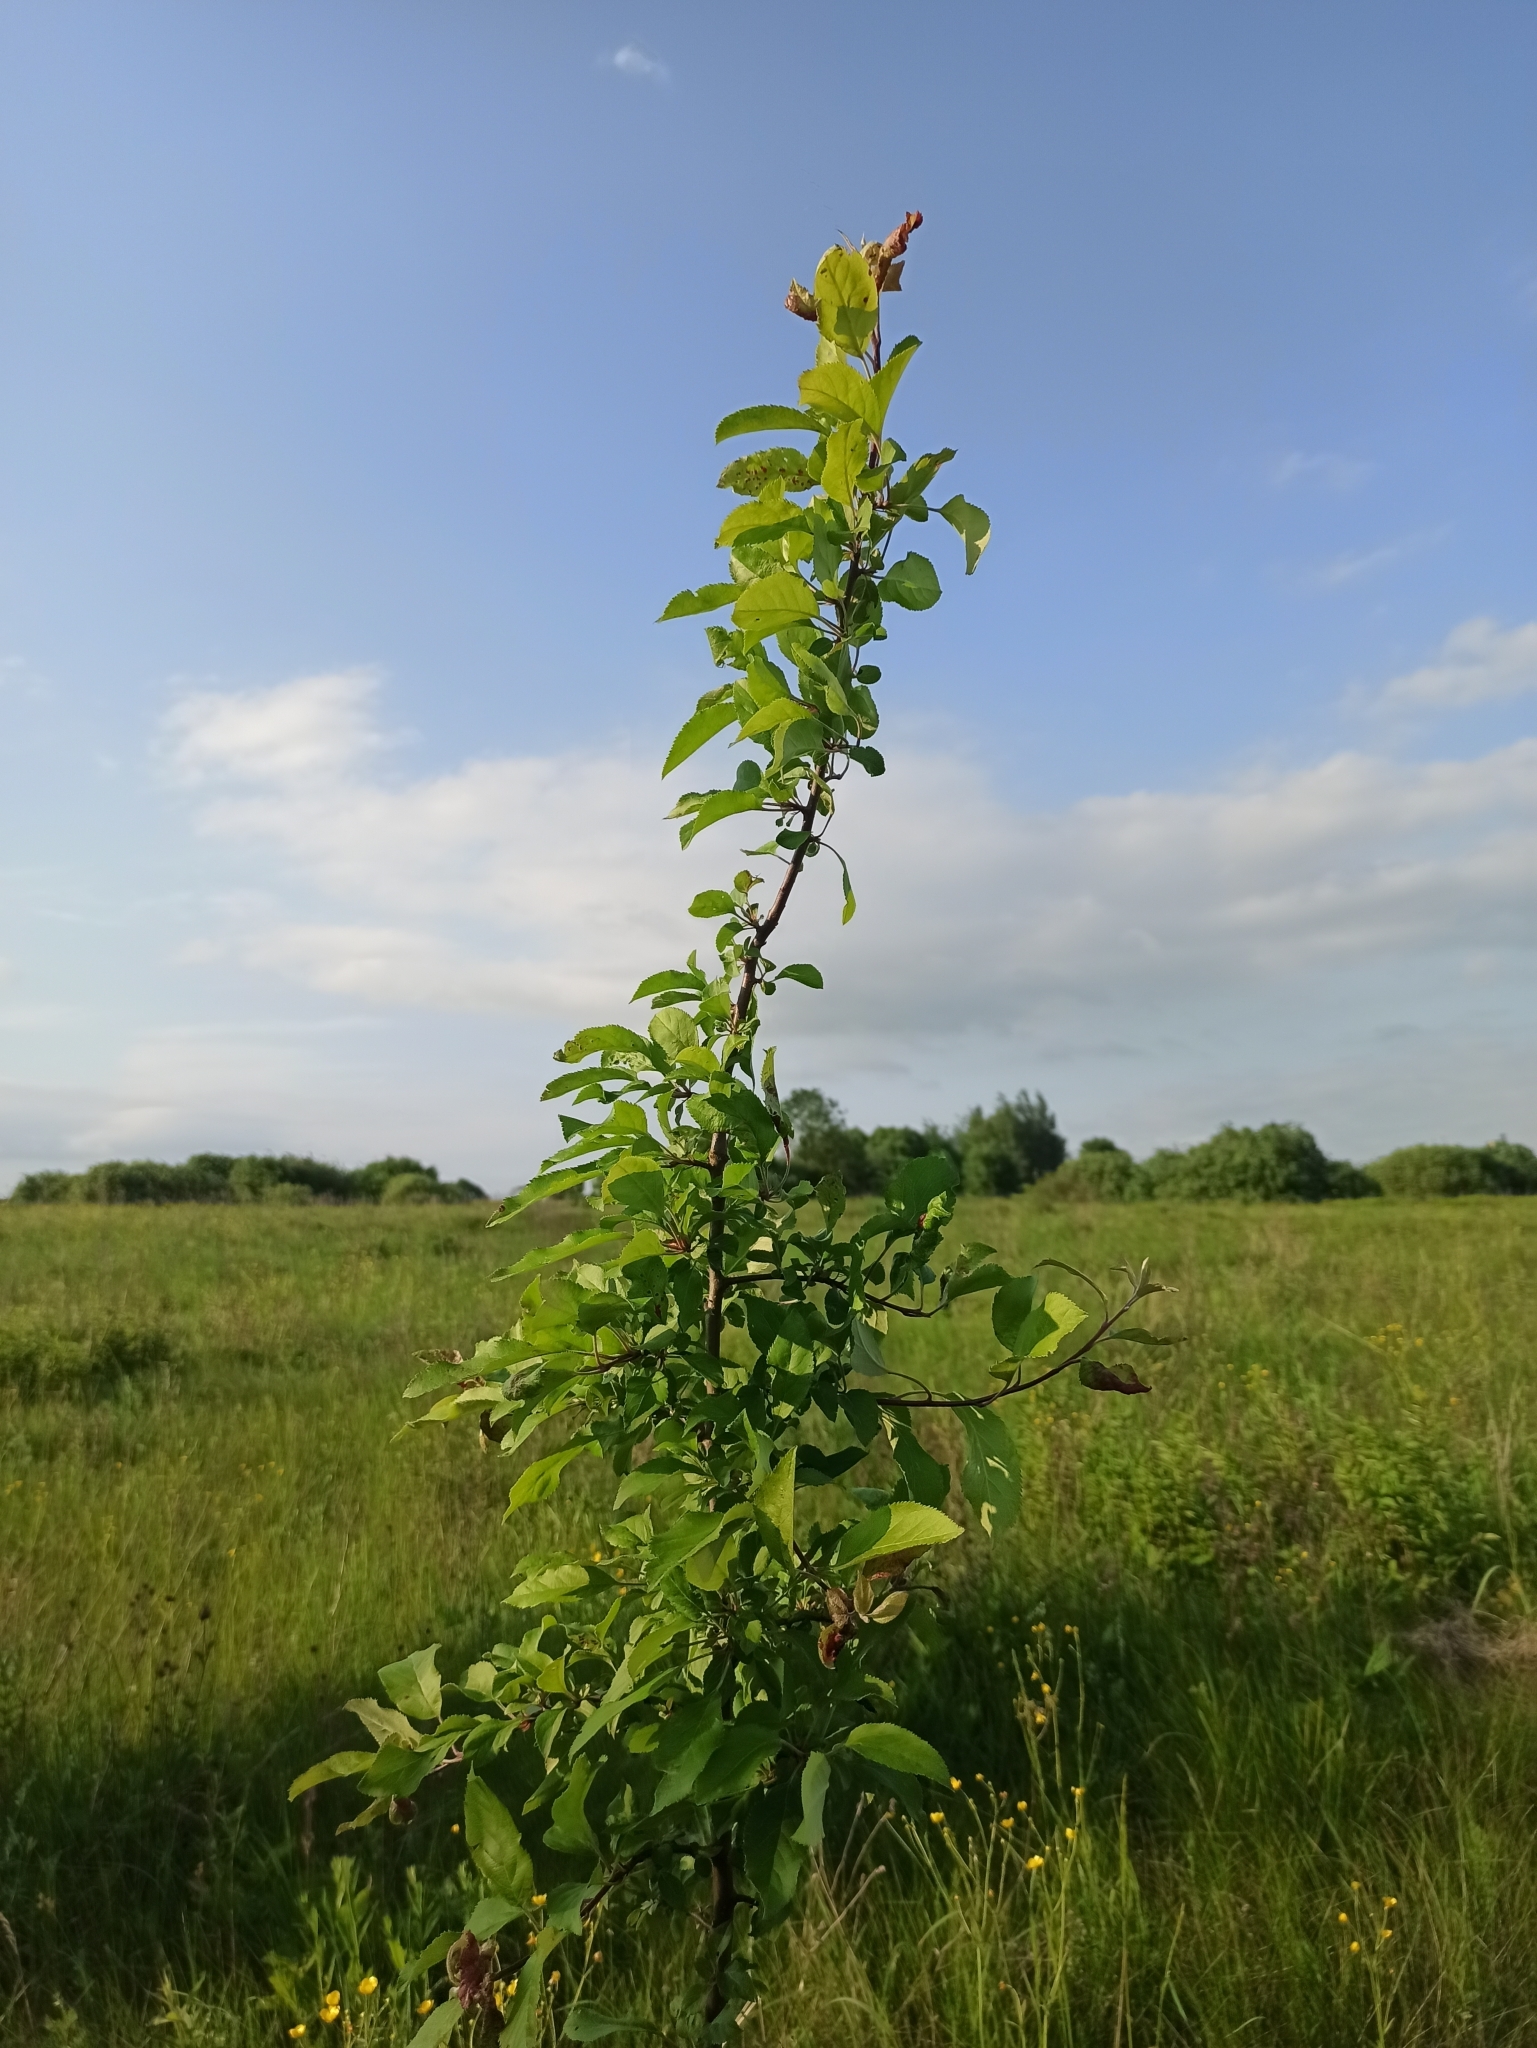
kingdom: Plantae
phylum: Tracheophyta
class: Magnoliopsida
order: Rosales
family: Rosaceae
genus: Malus
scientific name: Malus domestica
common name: Apple
